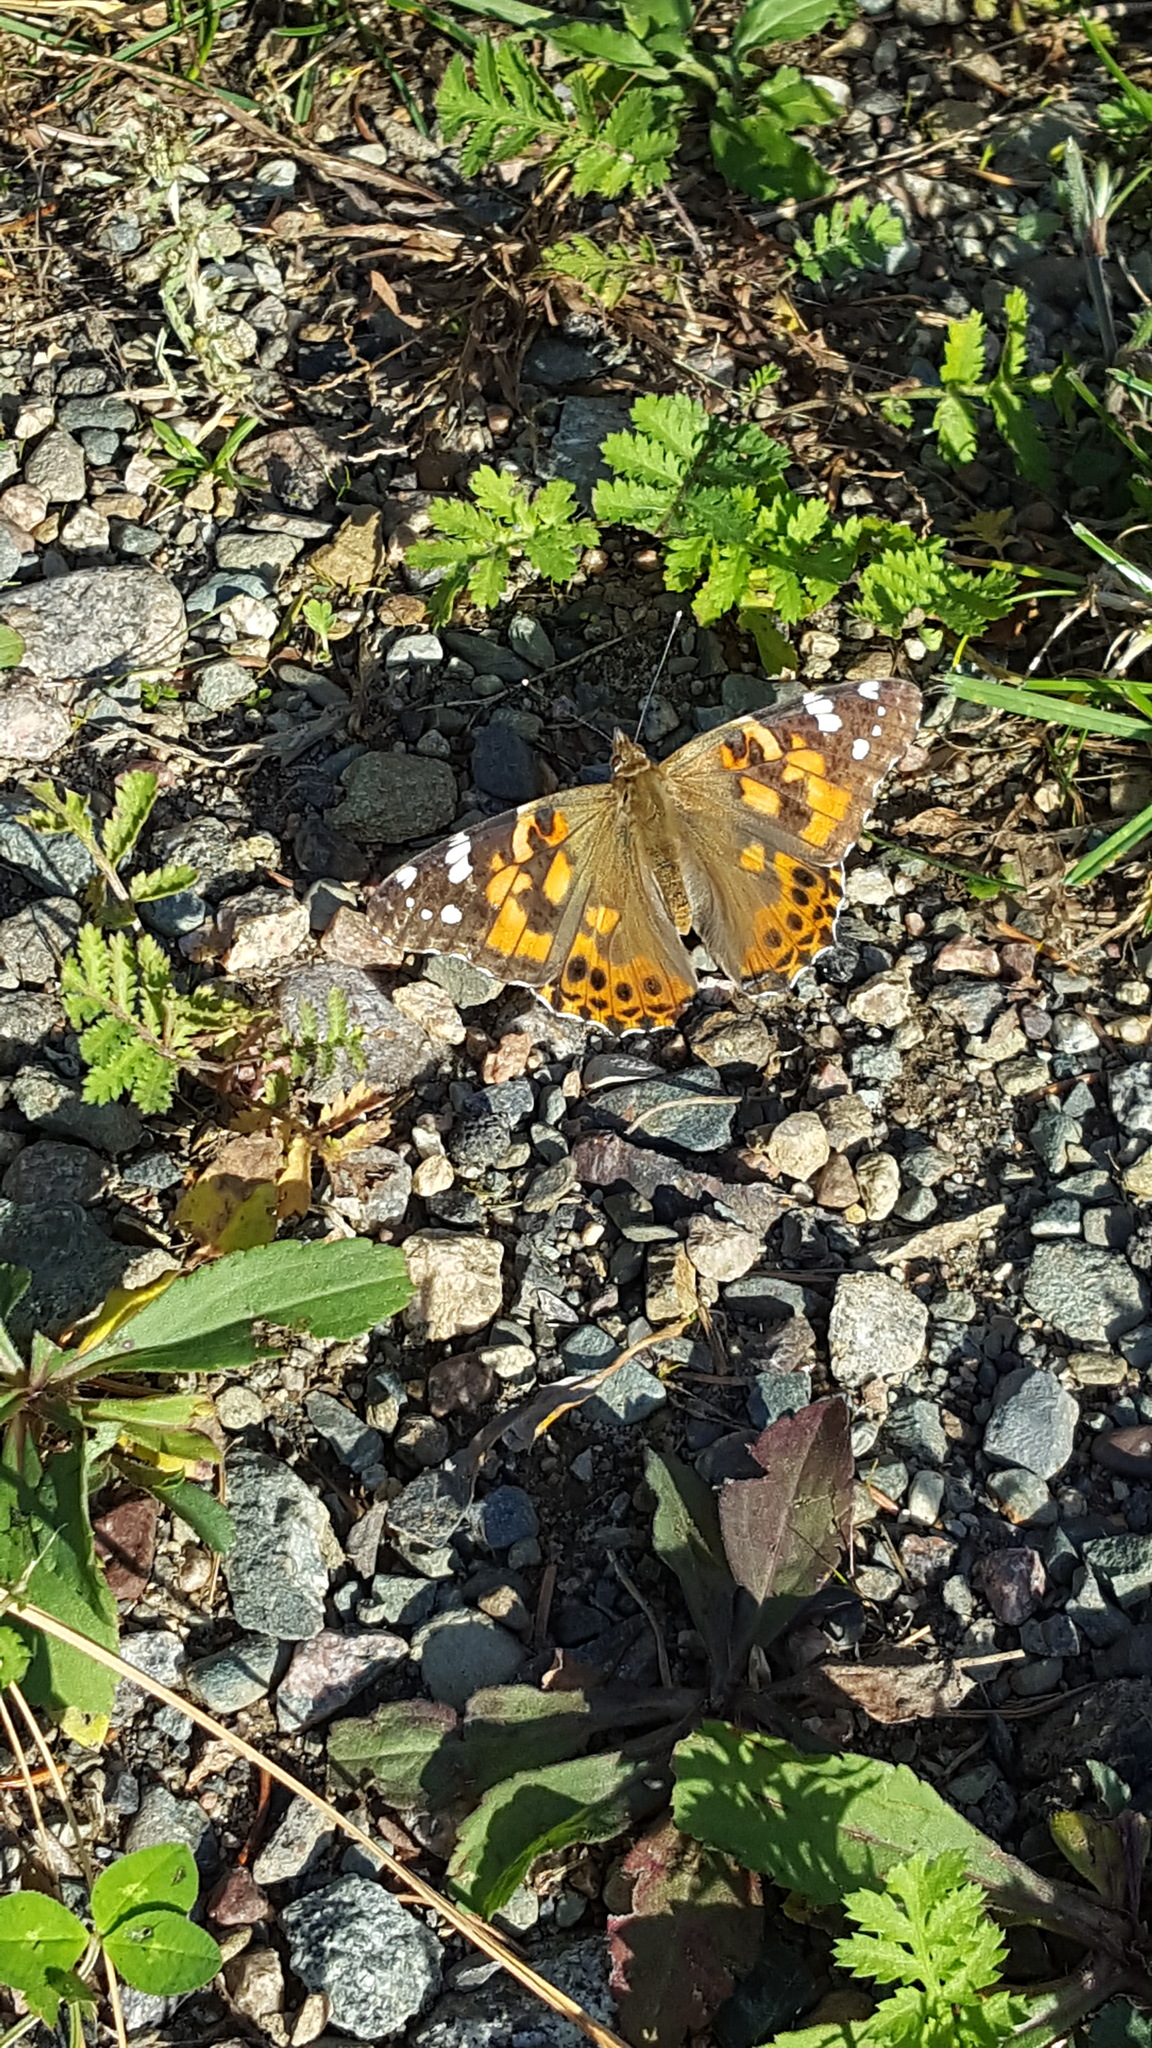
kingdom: Animalia
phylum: Arthropoda
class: Insecta
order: Lepidoptera
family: Nymphalidae
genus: Vanessa
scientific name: Vanessa cardui
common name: Painted lady
